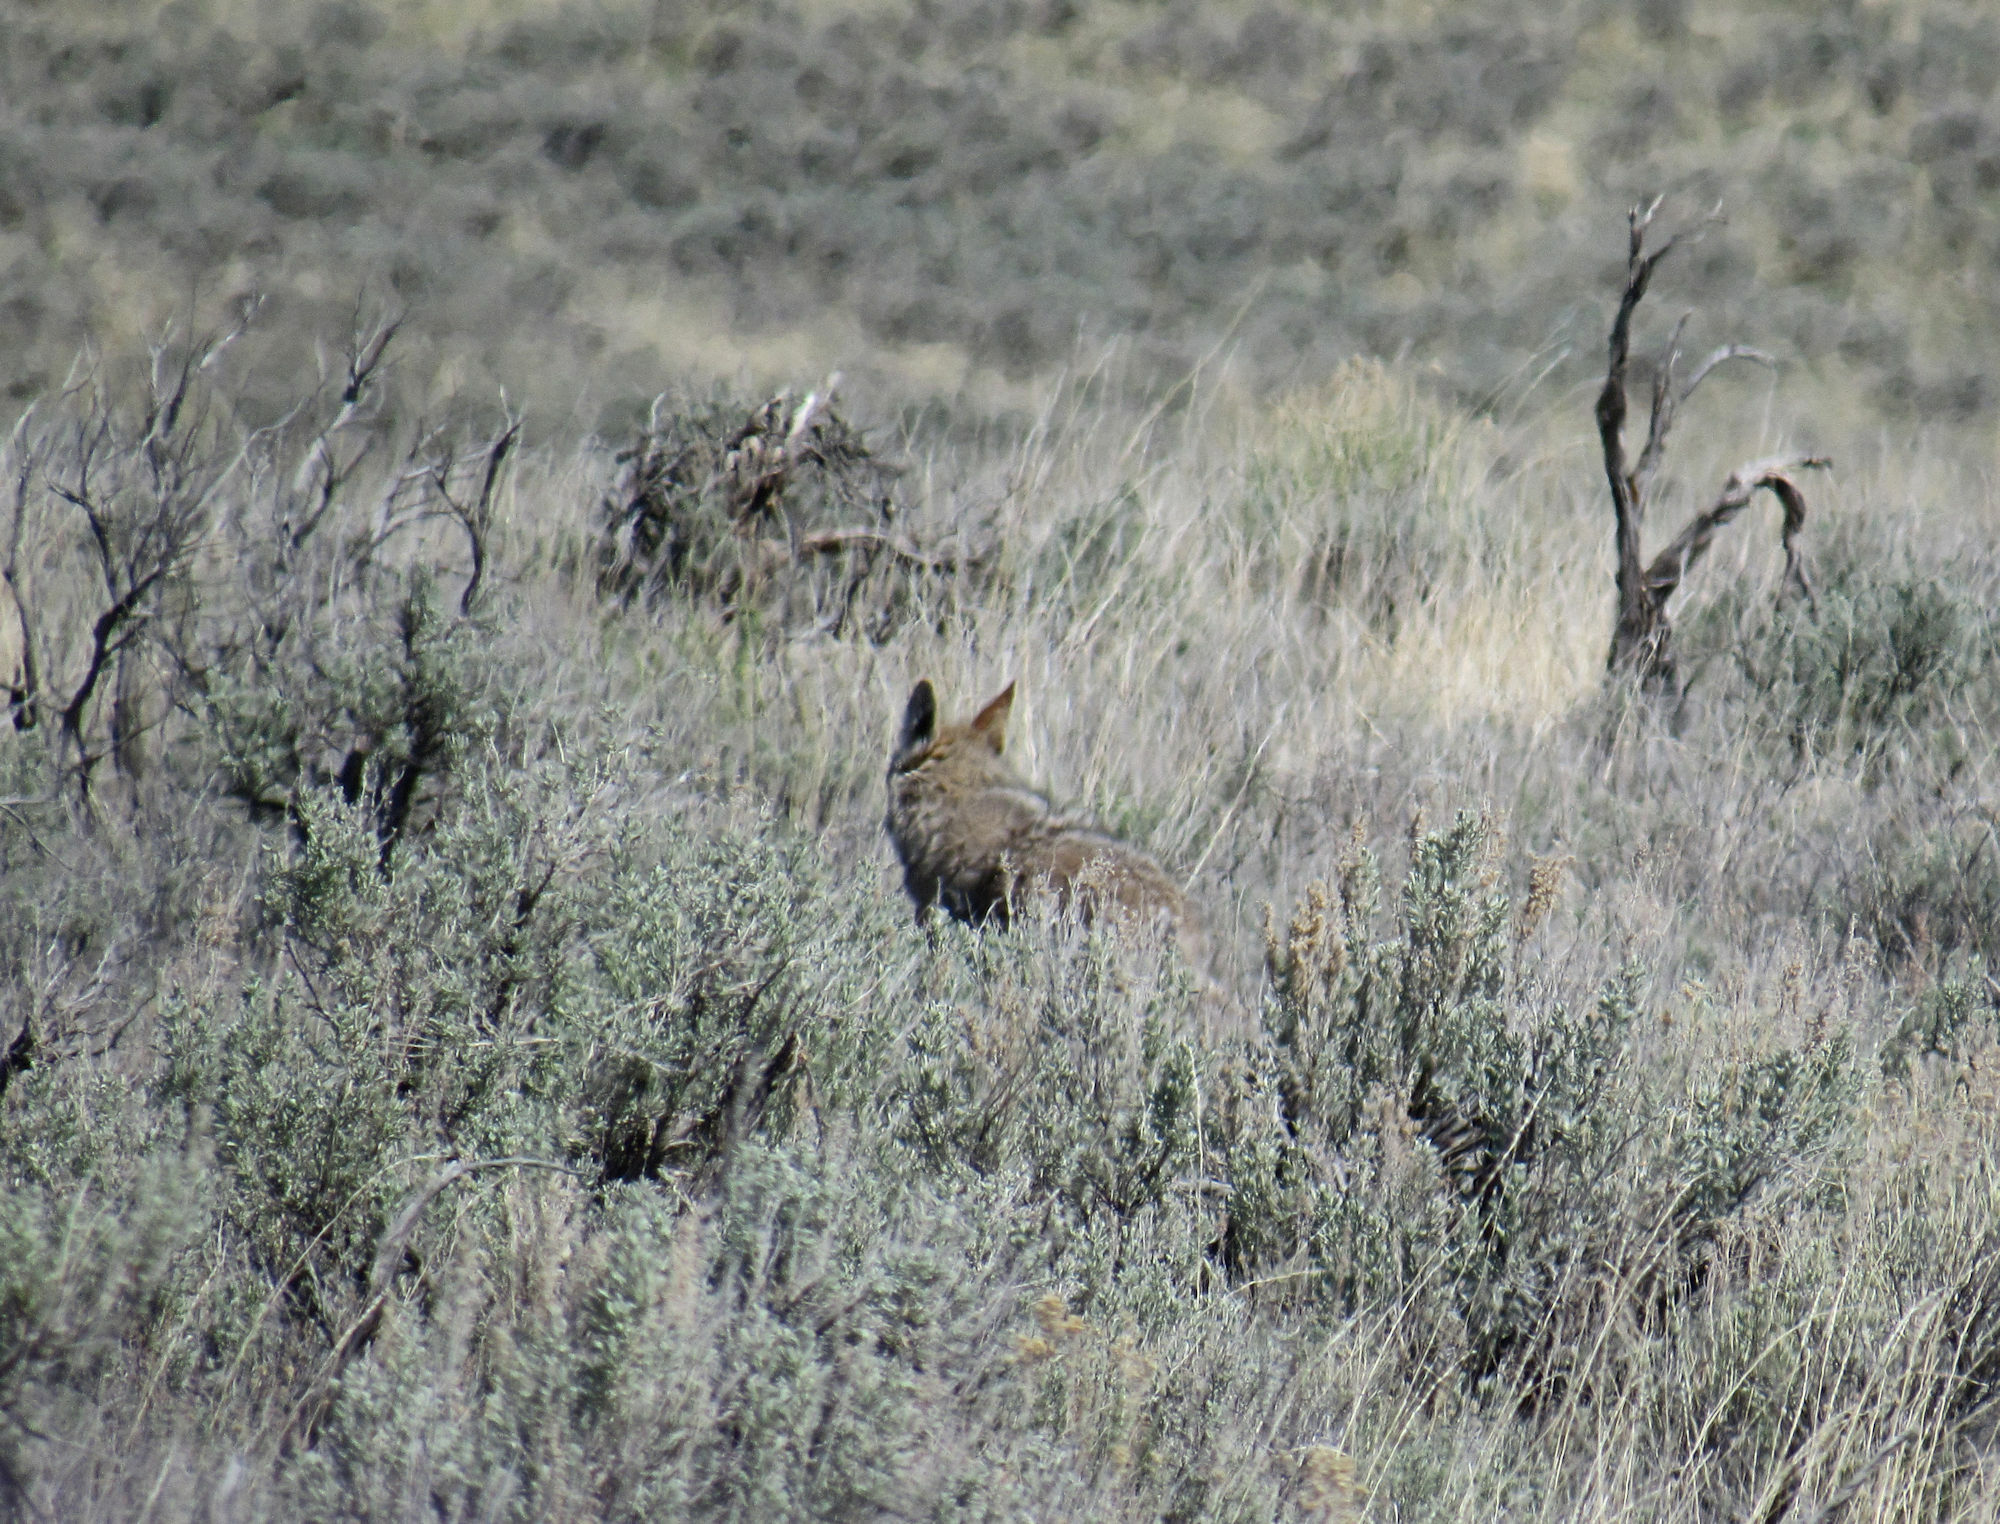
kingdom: Animalia
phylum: Chordata
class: Mammalia
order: Carnivora
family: Canidae
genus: Canis
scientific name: Canis latrans
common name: Coyote
